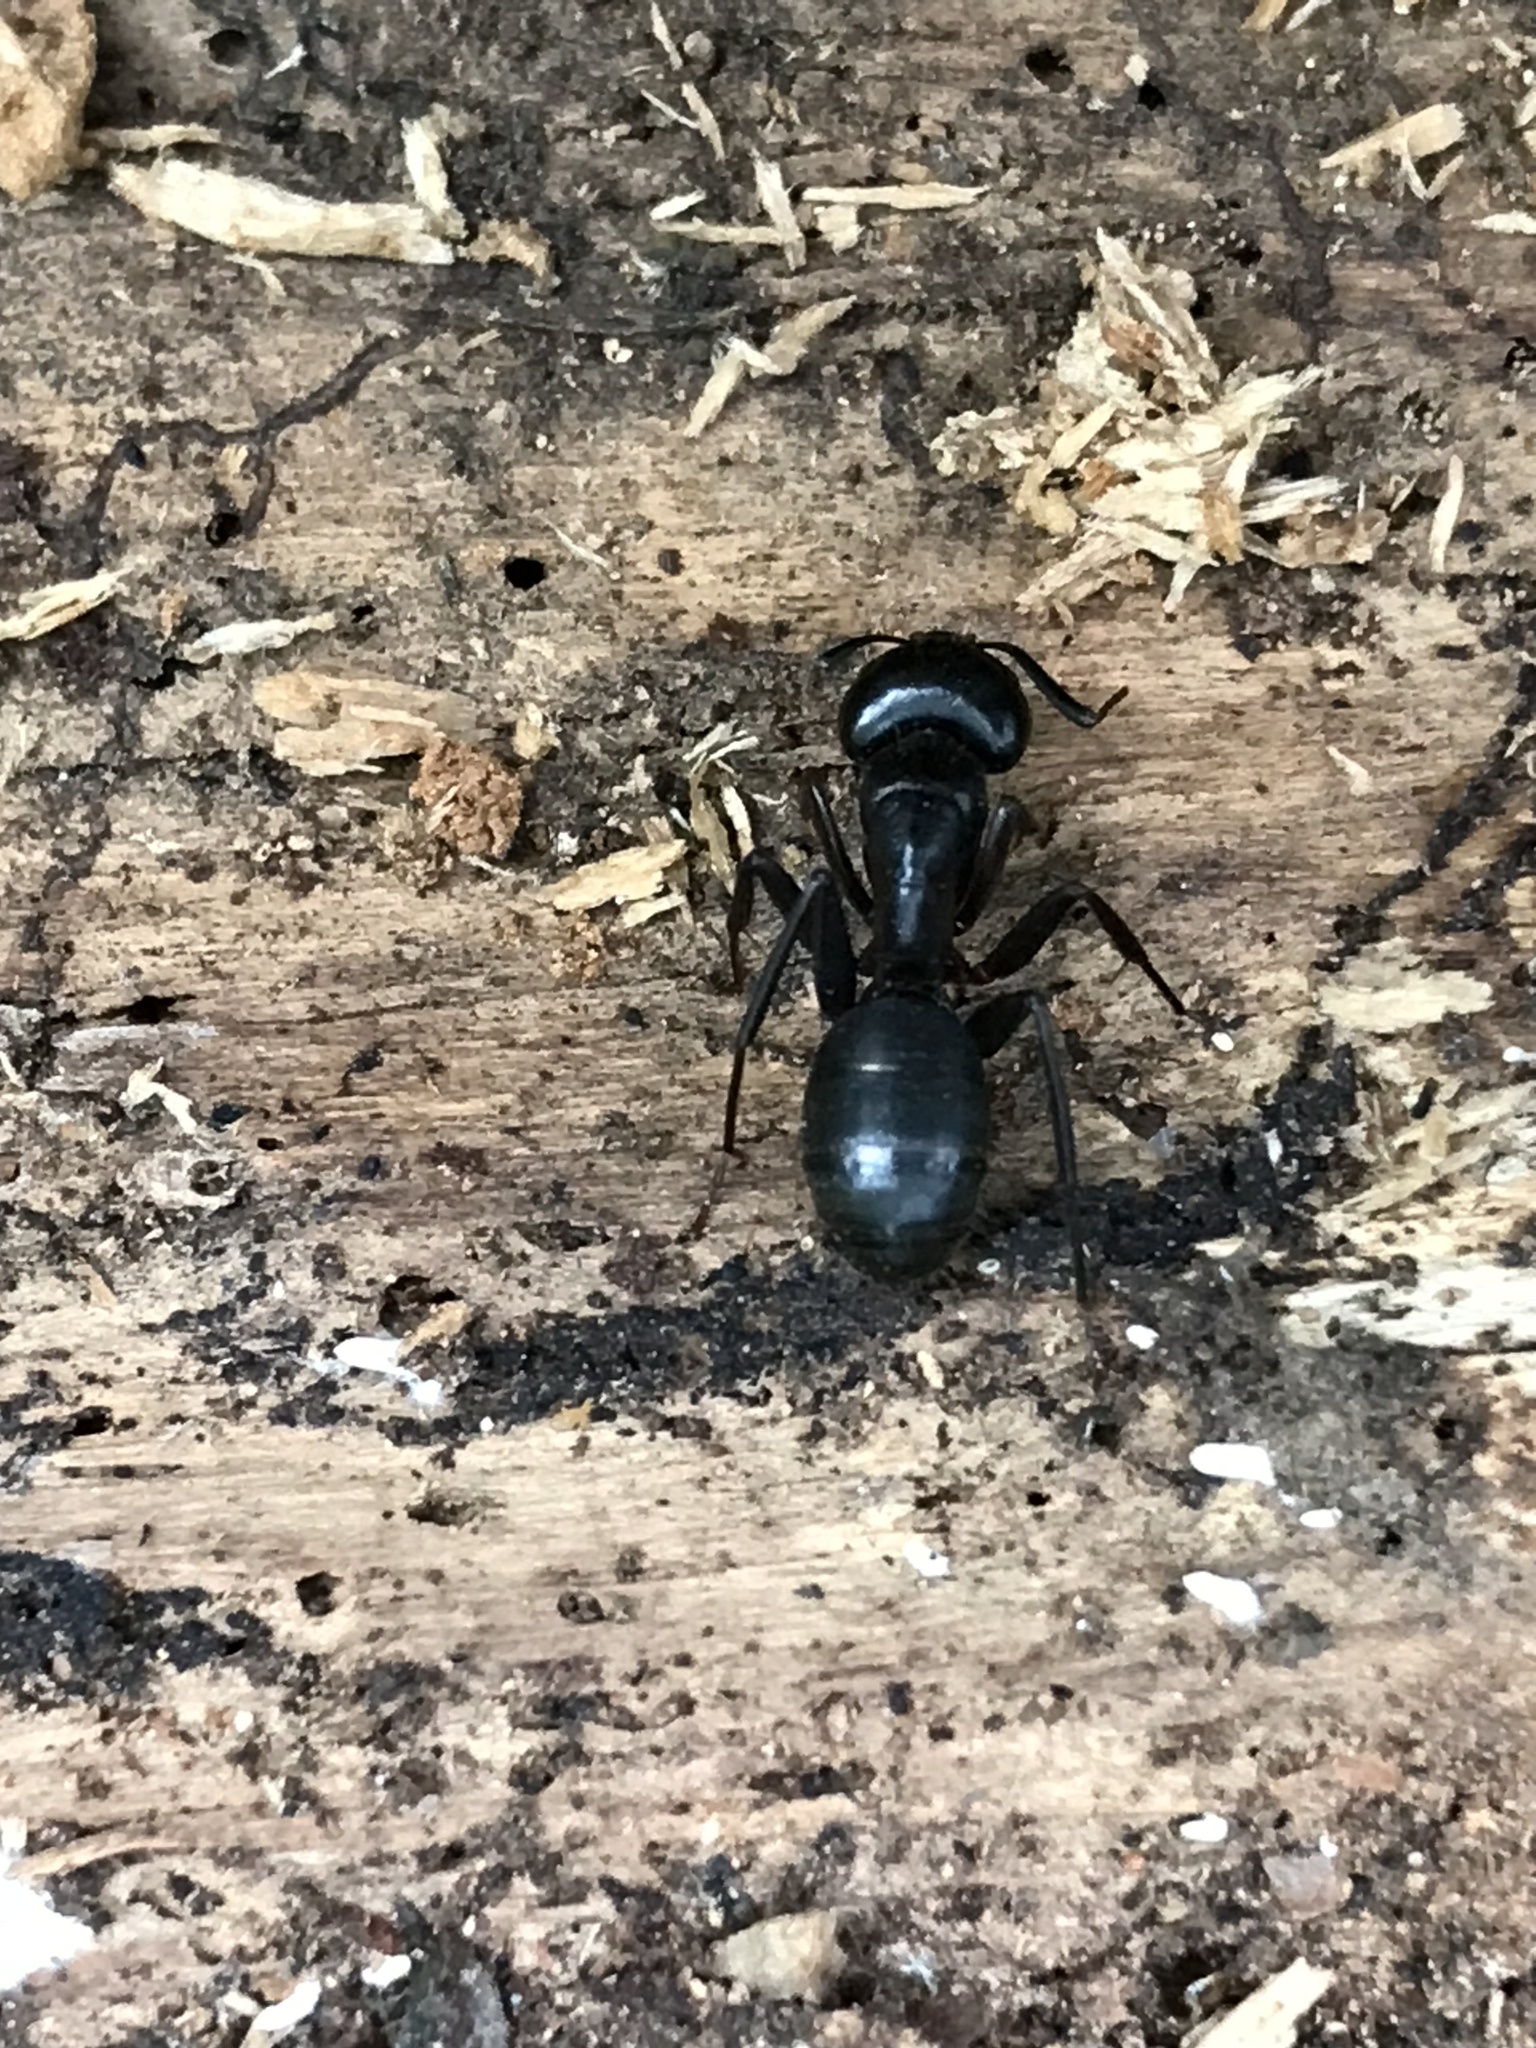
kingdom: Animalia
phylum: Arthropoda
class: Insecta
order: Hymenoptera
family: Formicidae
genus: Camponotus
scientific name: Camponotus vicinus
